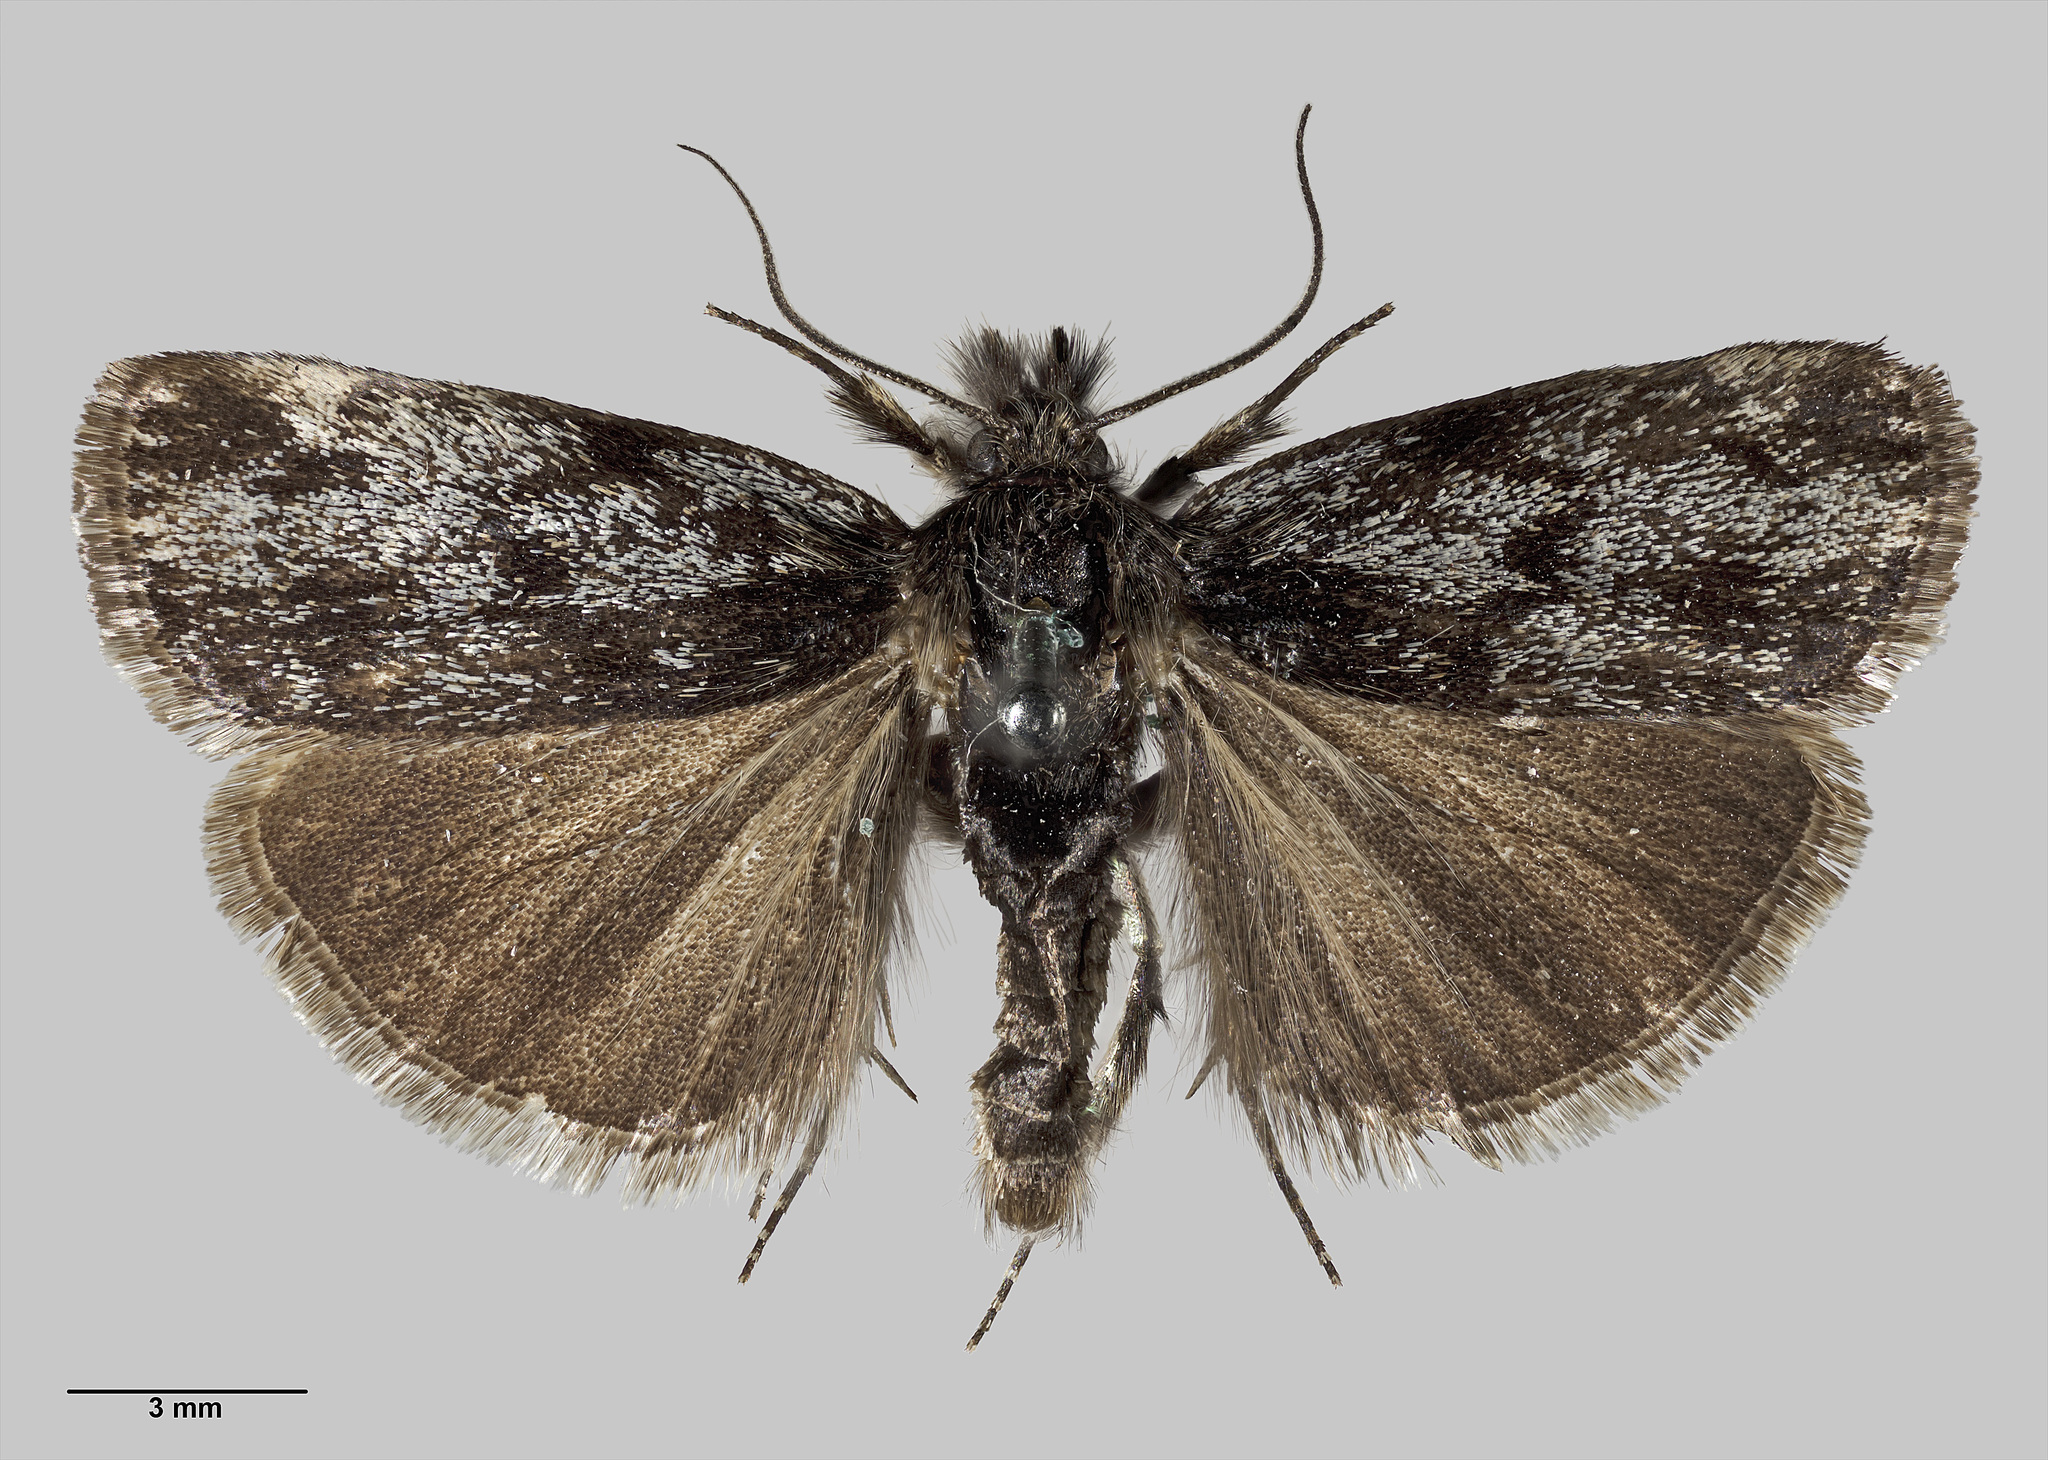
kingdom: Animalia
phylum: Arthropoda
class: Insecta
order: Lepidoptera
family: Crambidae
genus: Orocrambus
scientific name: Orocrambus clarkei
